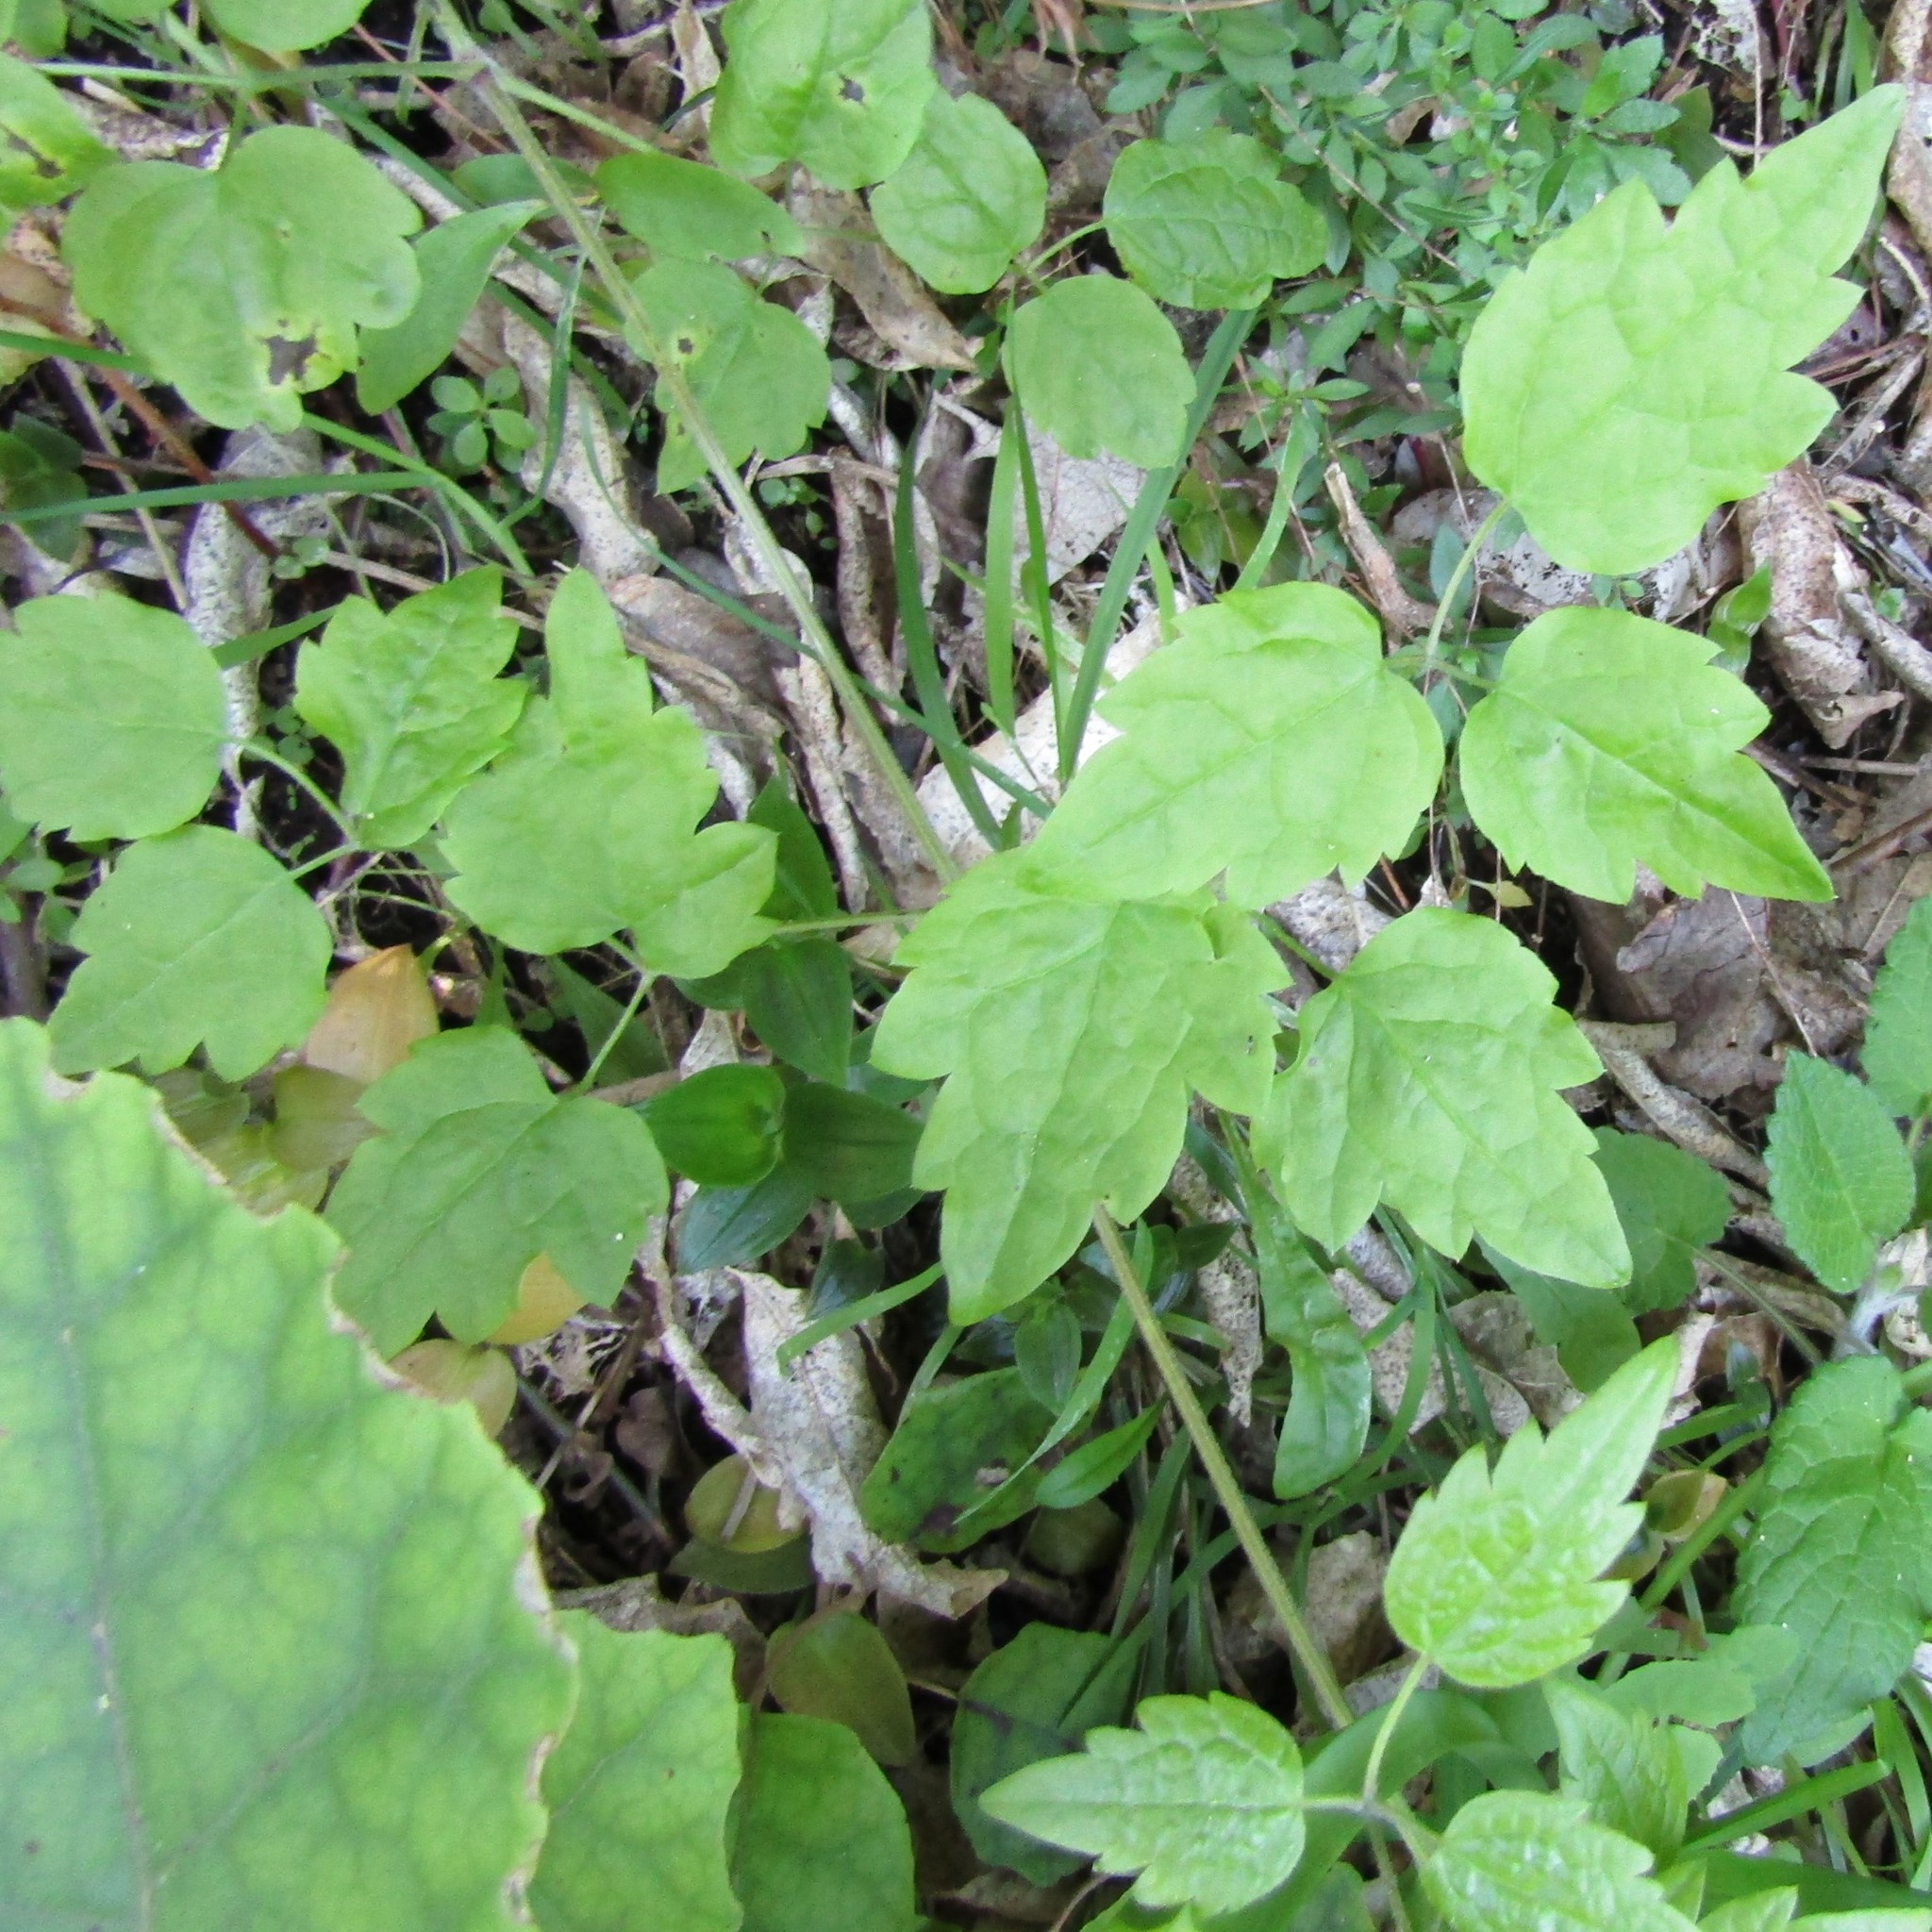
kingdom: Plantae
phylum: Tracheophyta
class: Magnoliopsida
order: Ranunculales
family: Ranunculaceae
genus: Clematis
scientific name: Clematis vitalba
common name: Evergreen clematis
